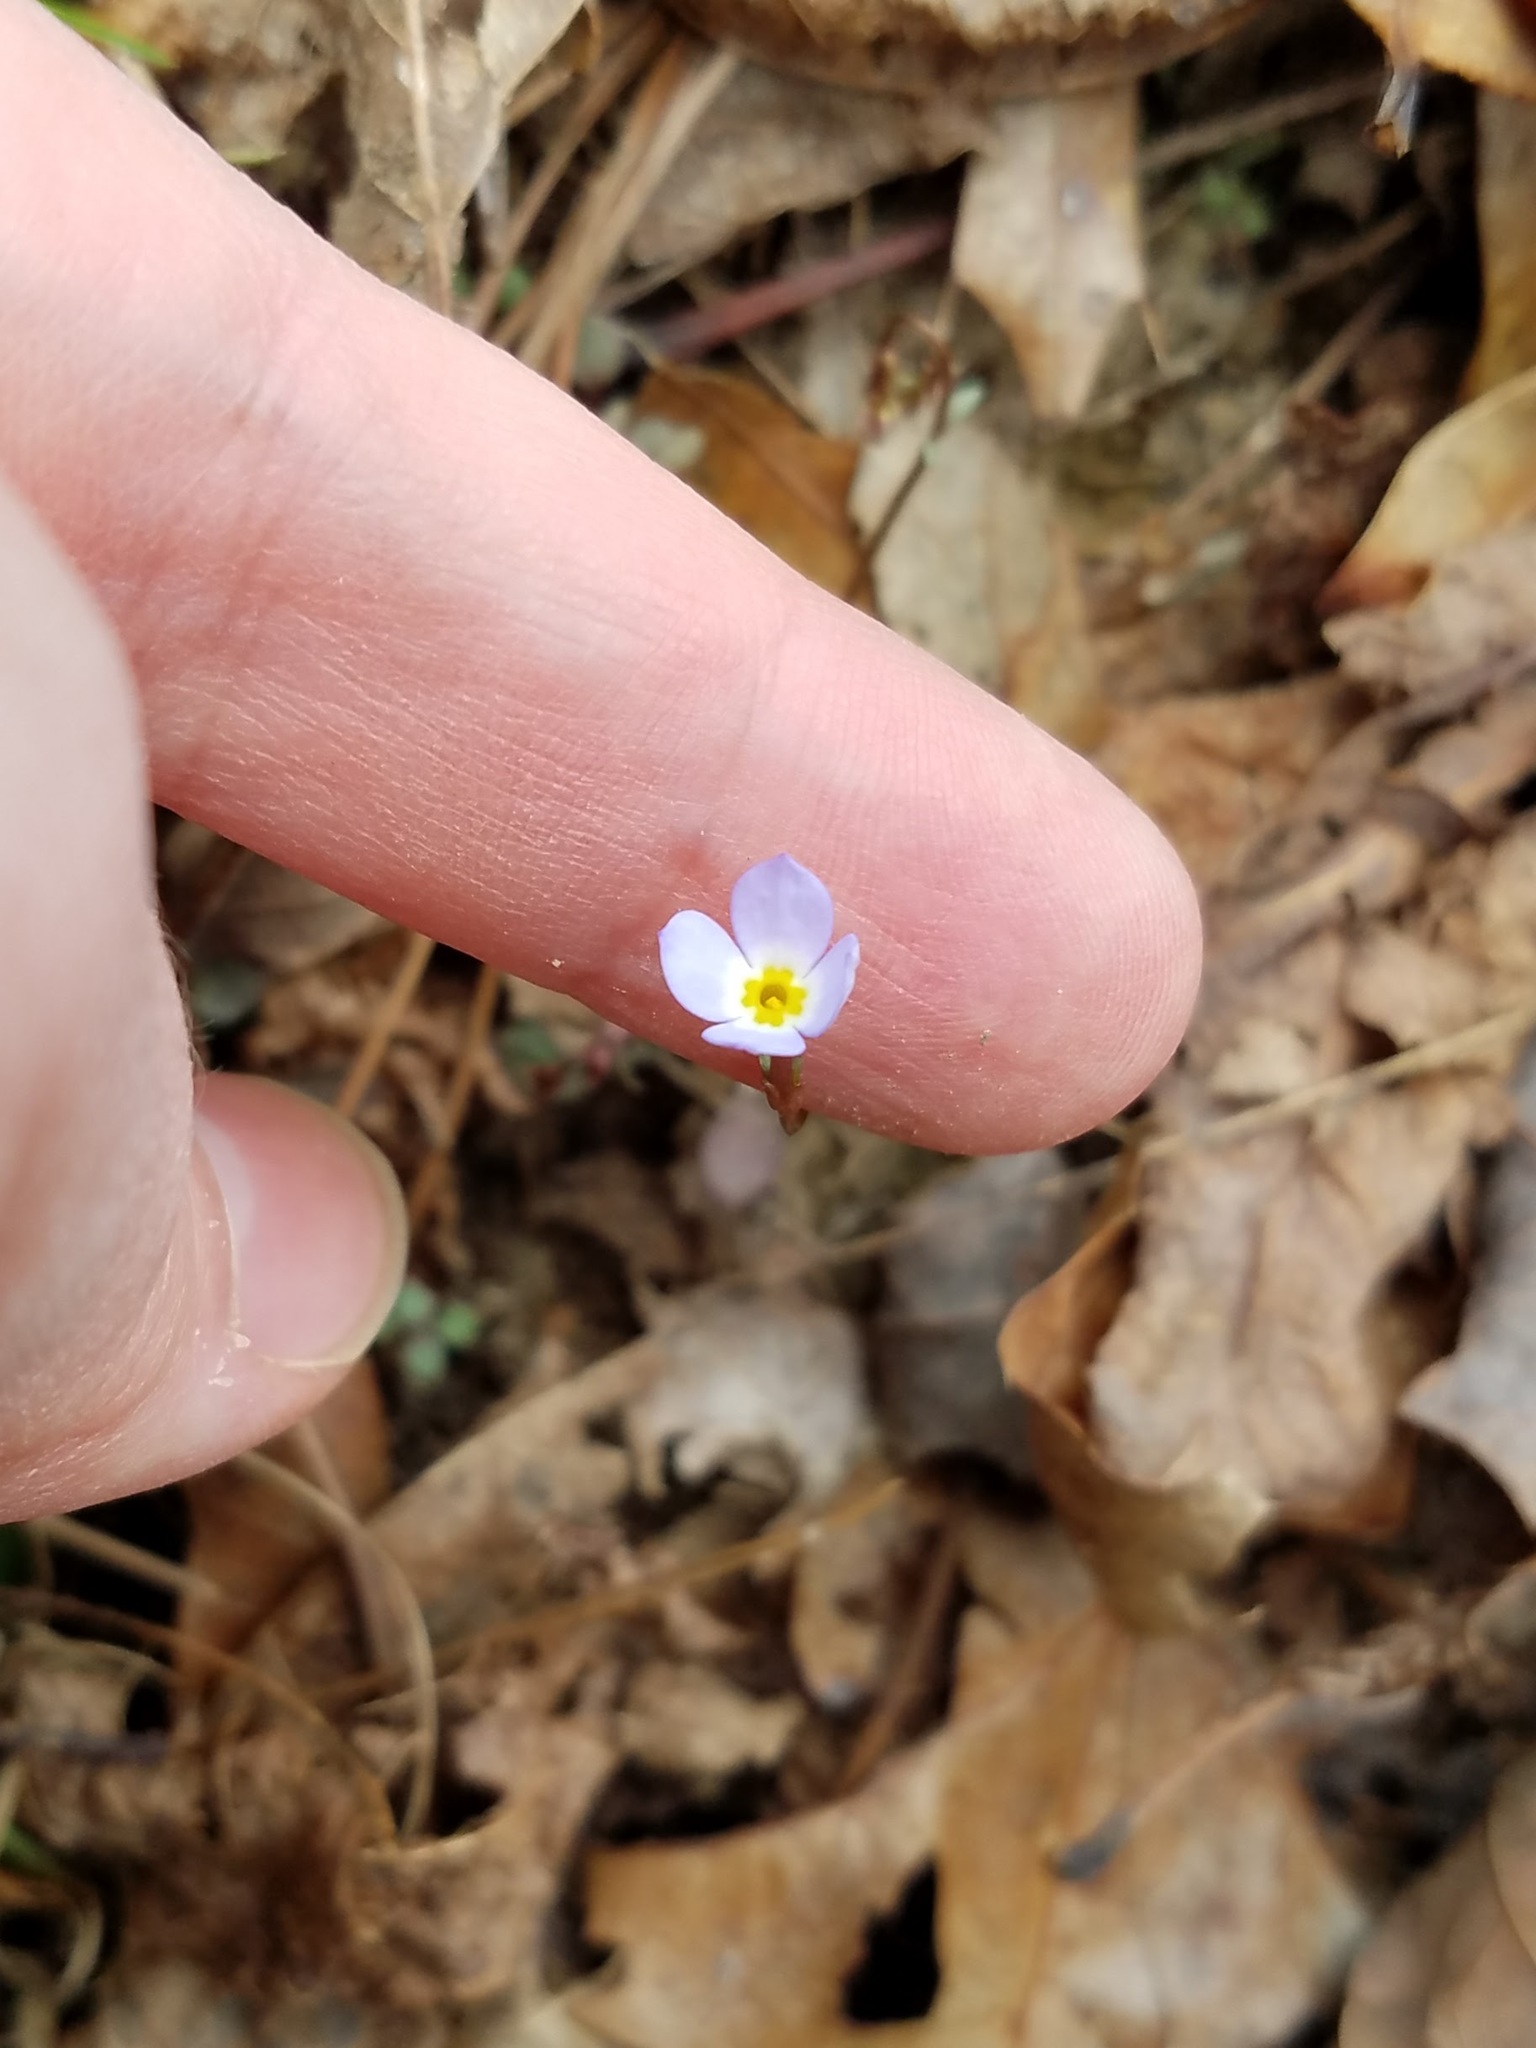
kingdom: Plantae
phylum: Tracheophyta
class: Magnoliopsida
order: Gentianales
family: Rubiaceae
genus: Houstonia
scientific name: Houstonia caerulea
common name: Bluets
